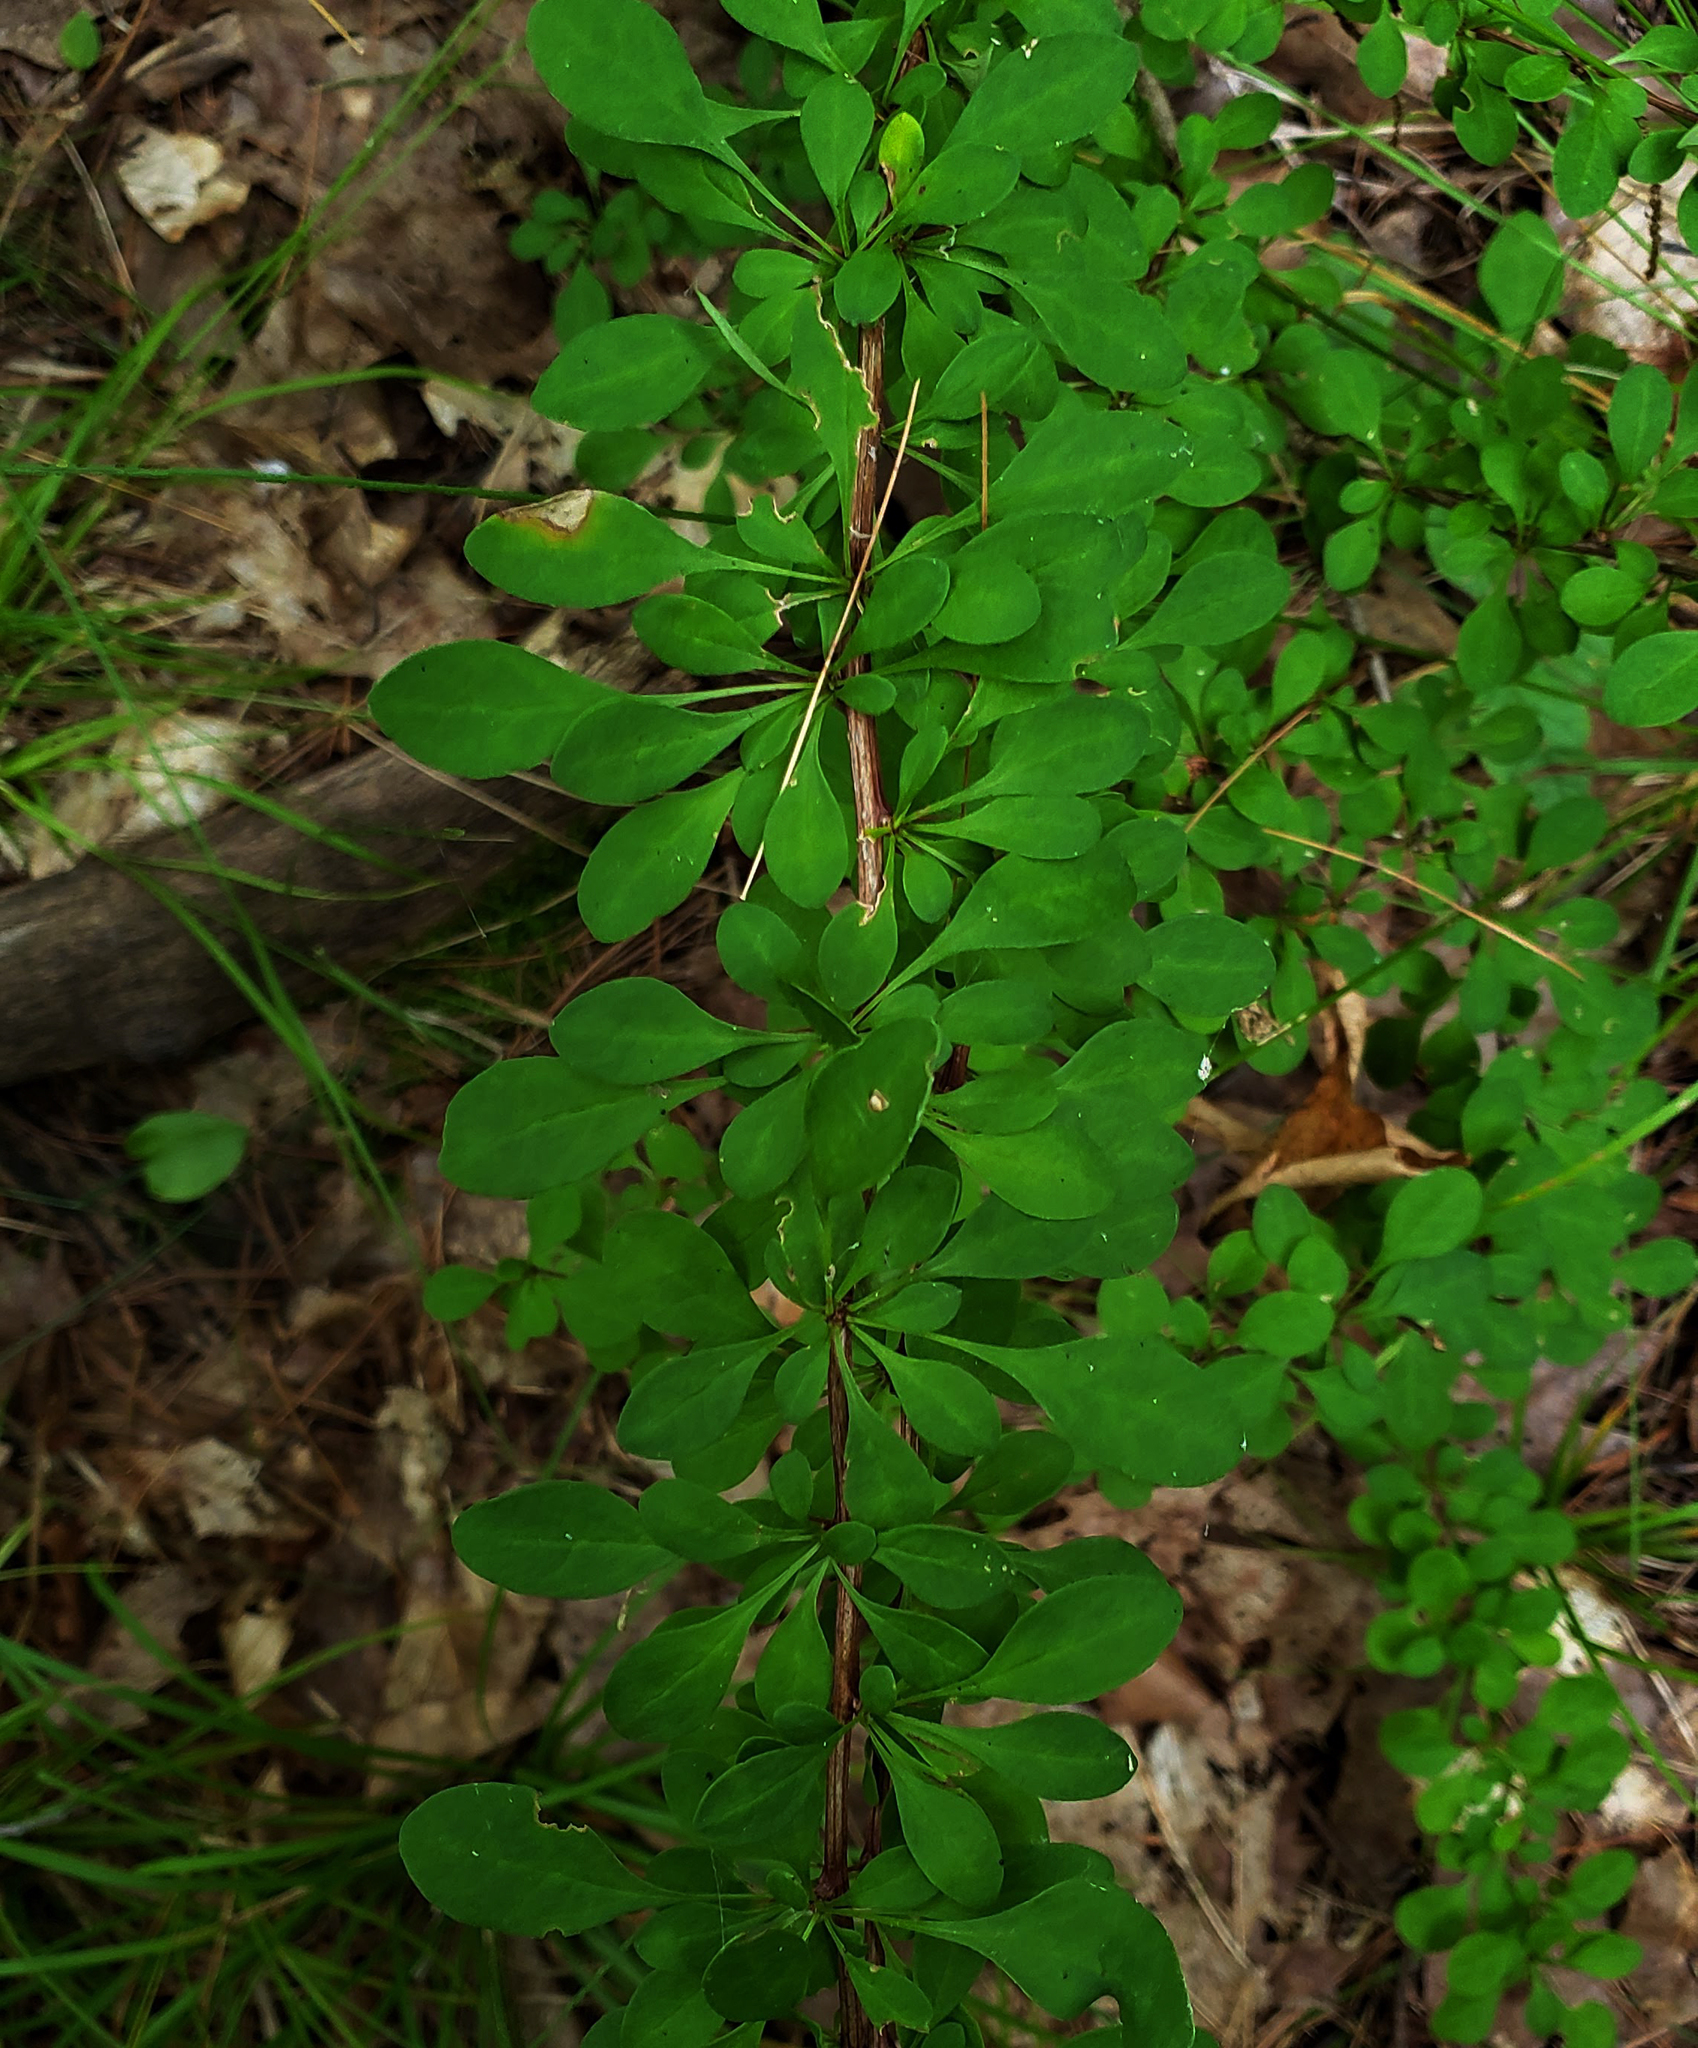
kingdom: Plantae
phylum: Tracheophyta
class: Magnoliopsida
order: Ranunculales
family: Berberidaceae
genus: Berberis
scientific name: Berberis thunbergii
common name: Japanese barberry
